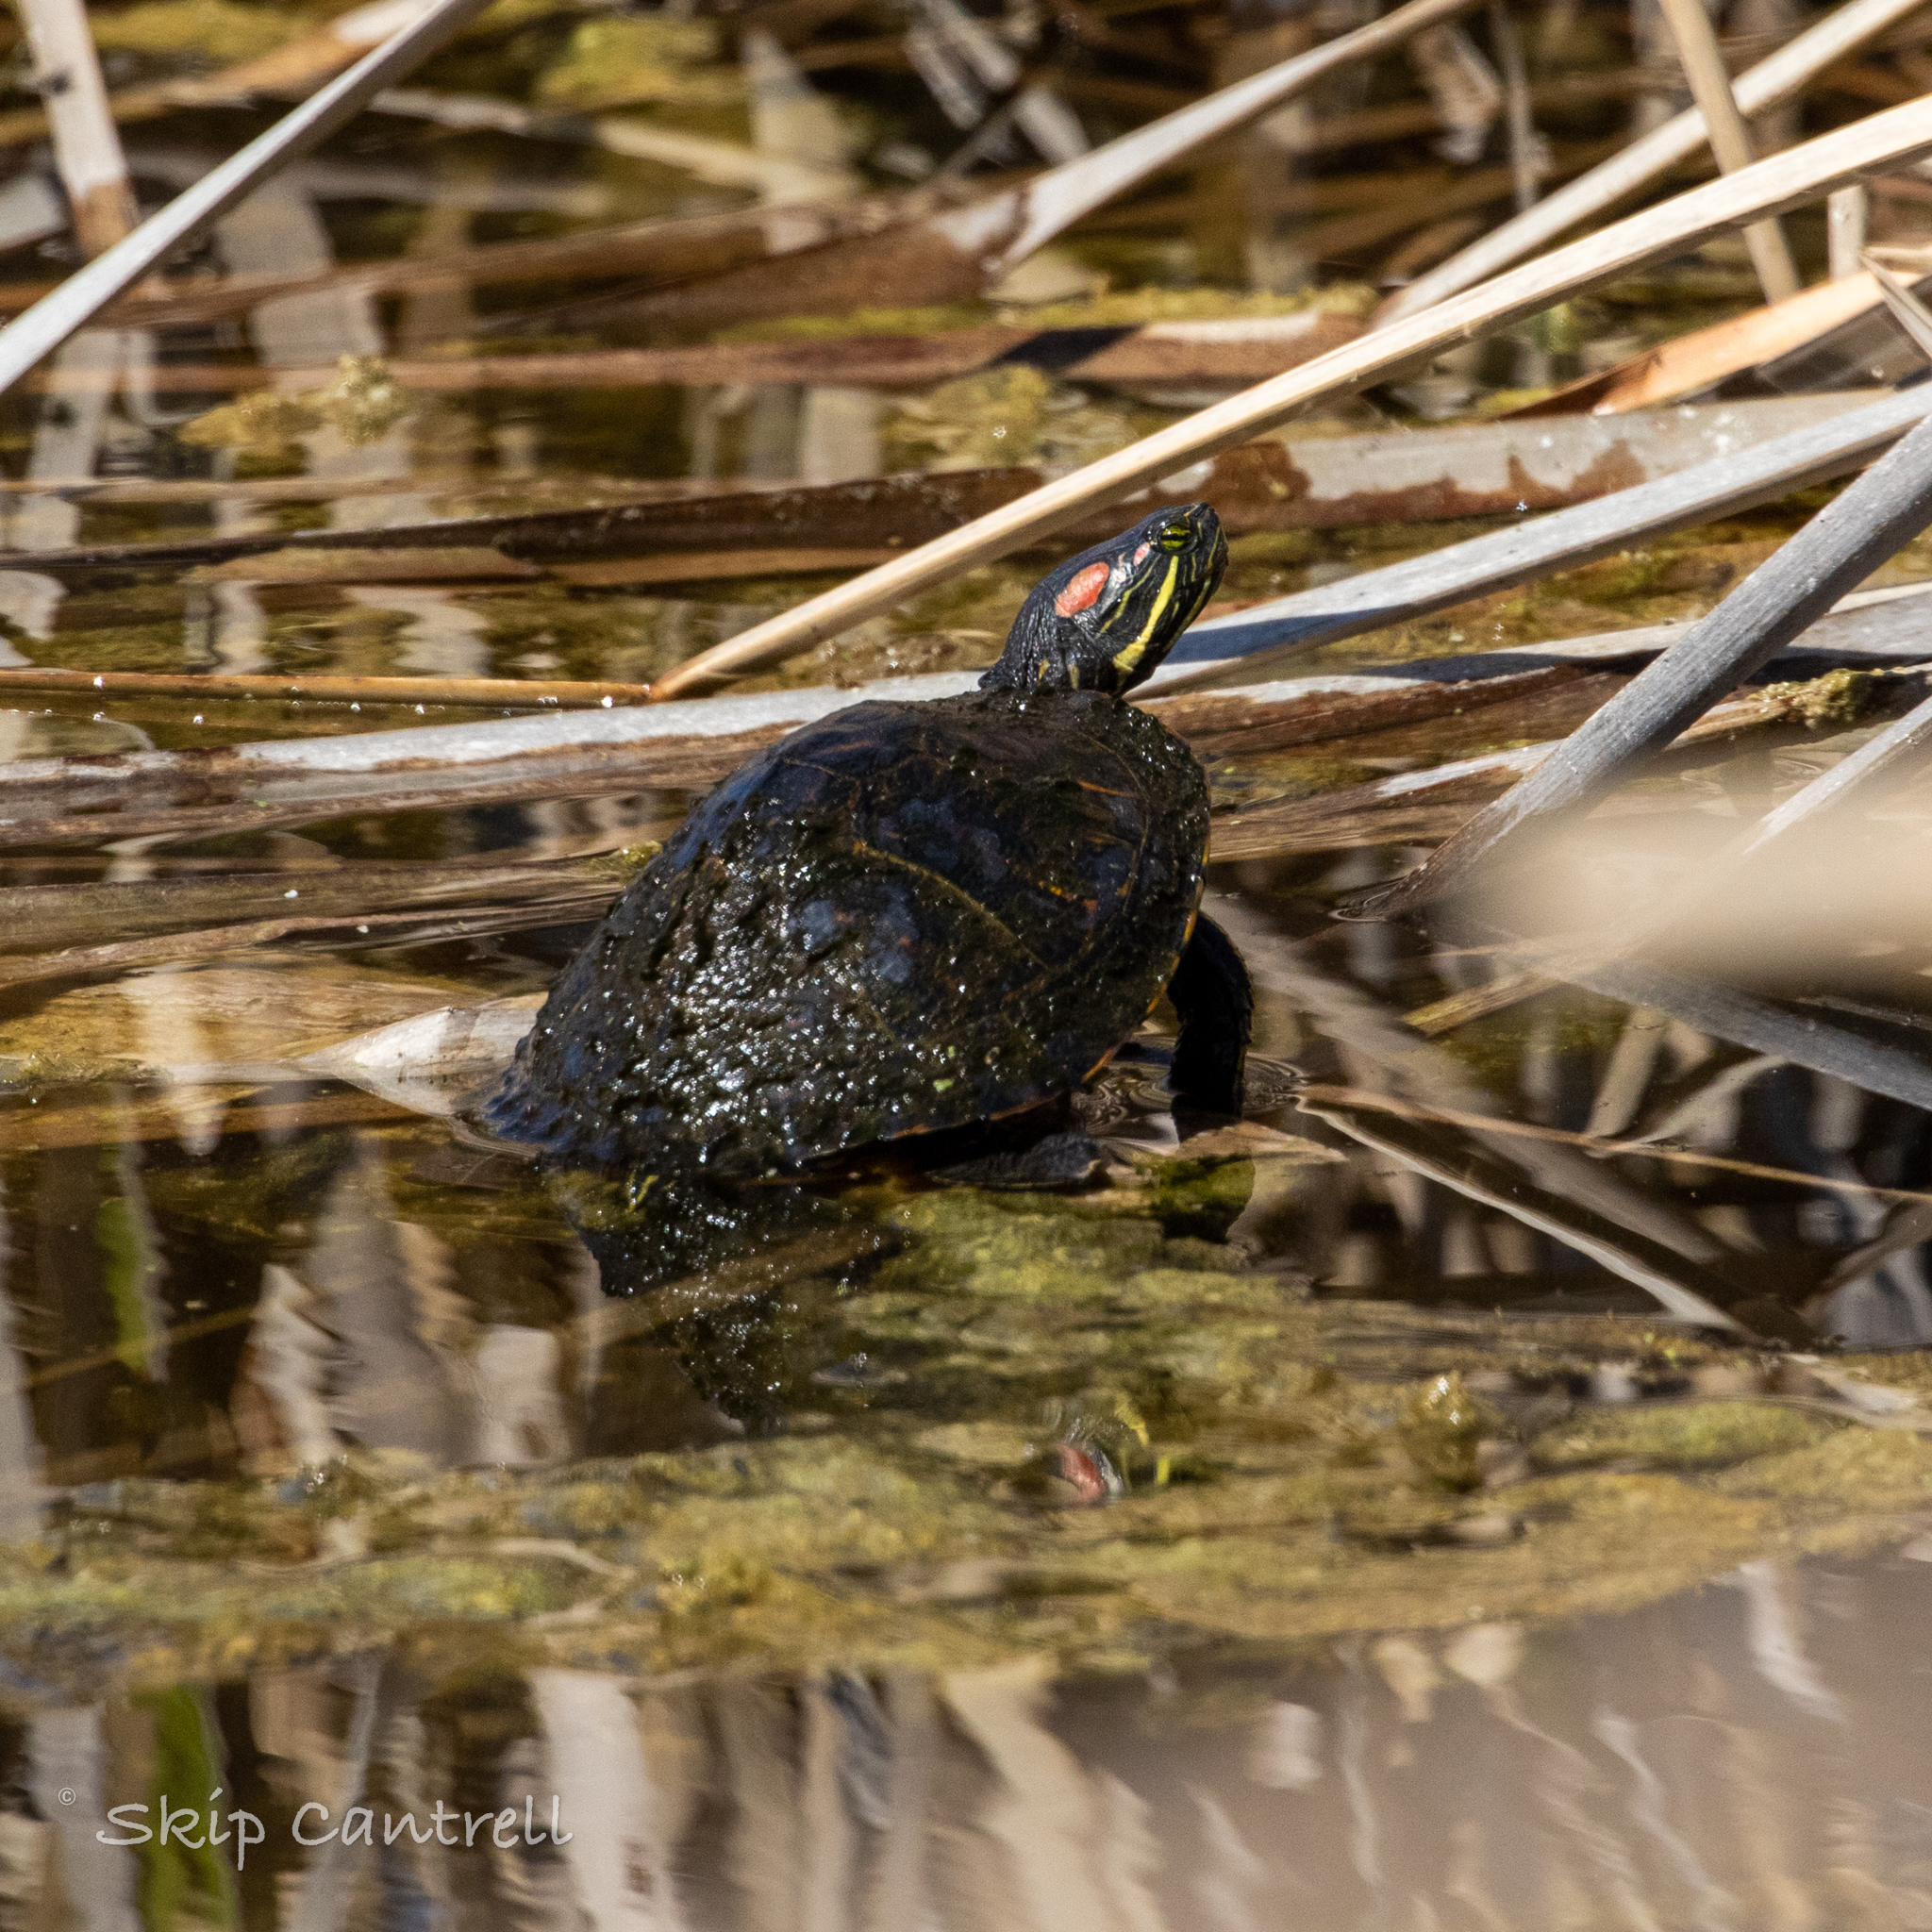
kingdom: Animalia
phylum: Chordata
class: Testudines
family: Emydidae
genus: Trachemys
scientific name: Trachemys scripta
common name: Slider
